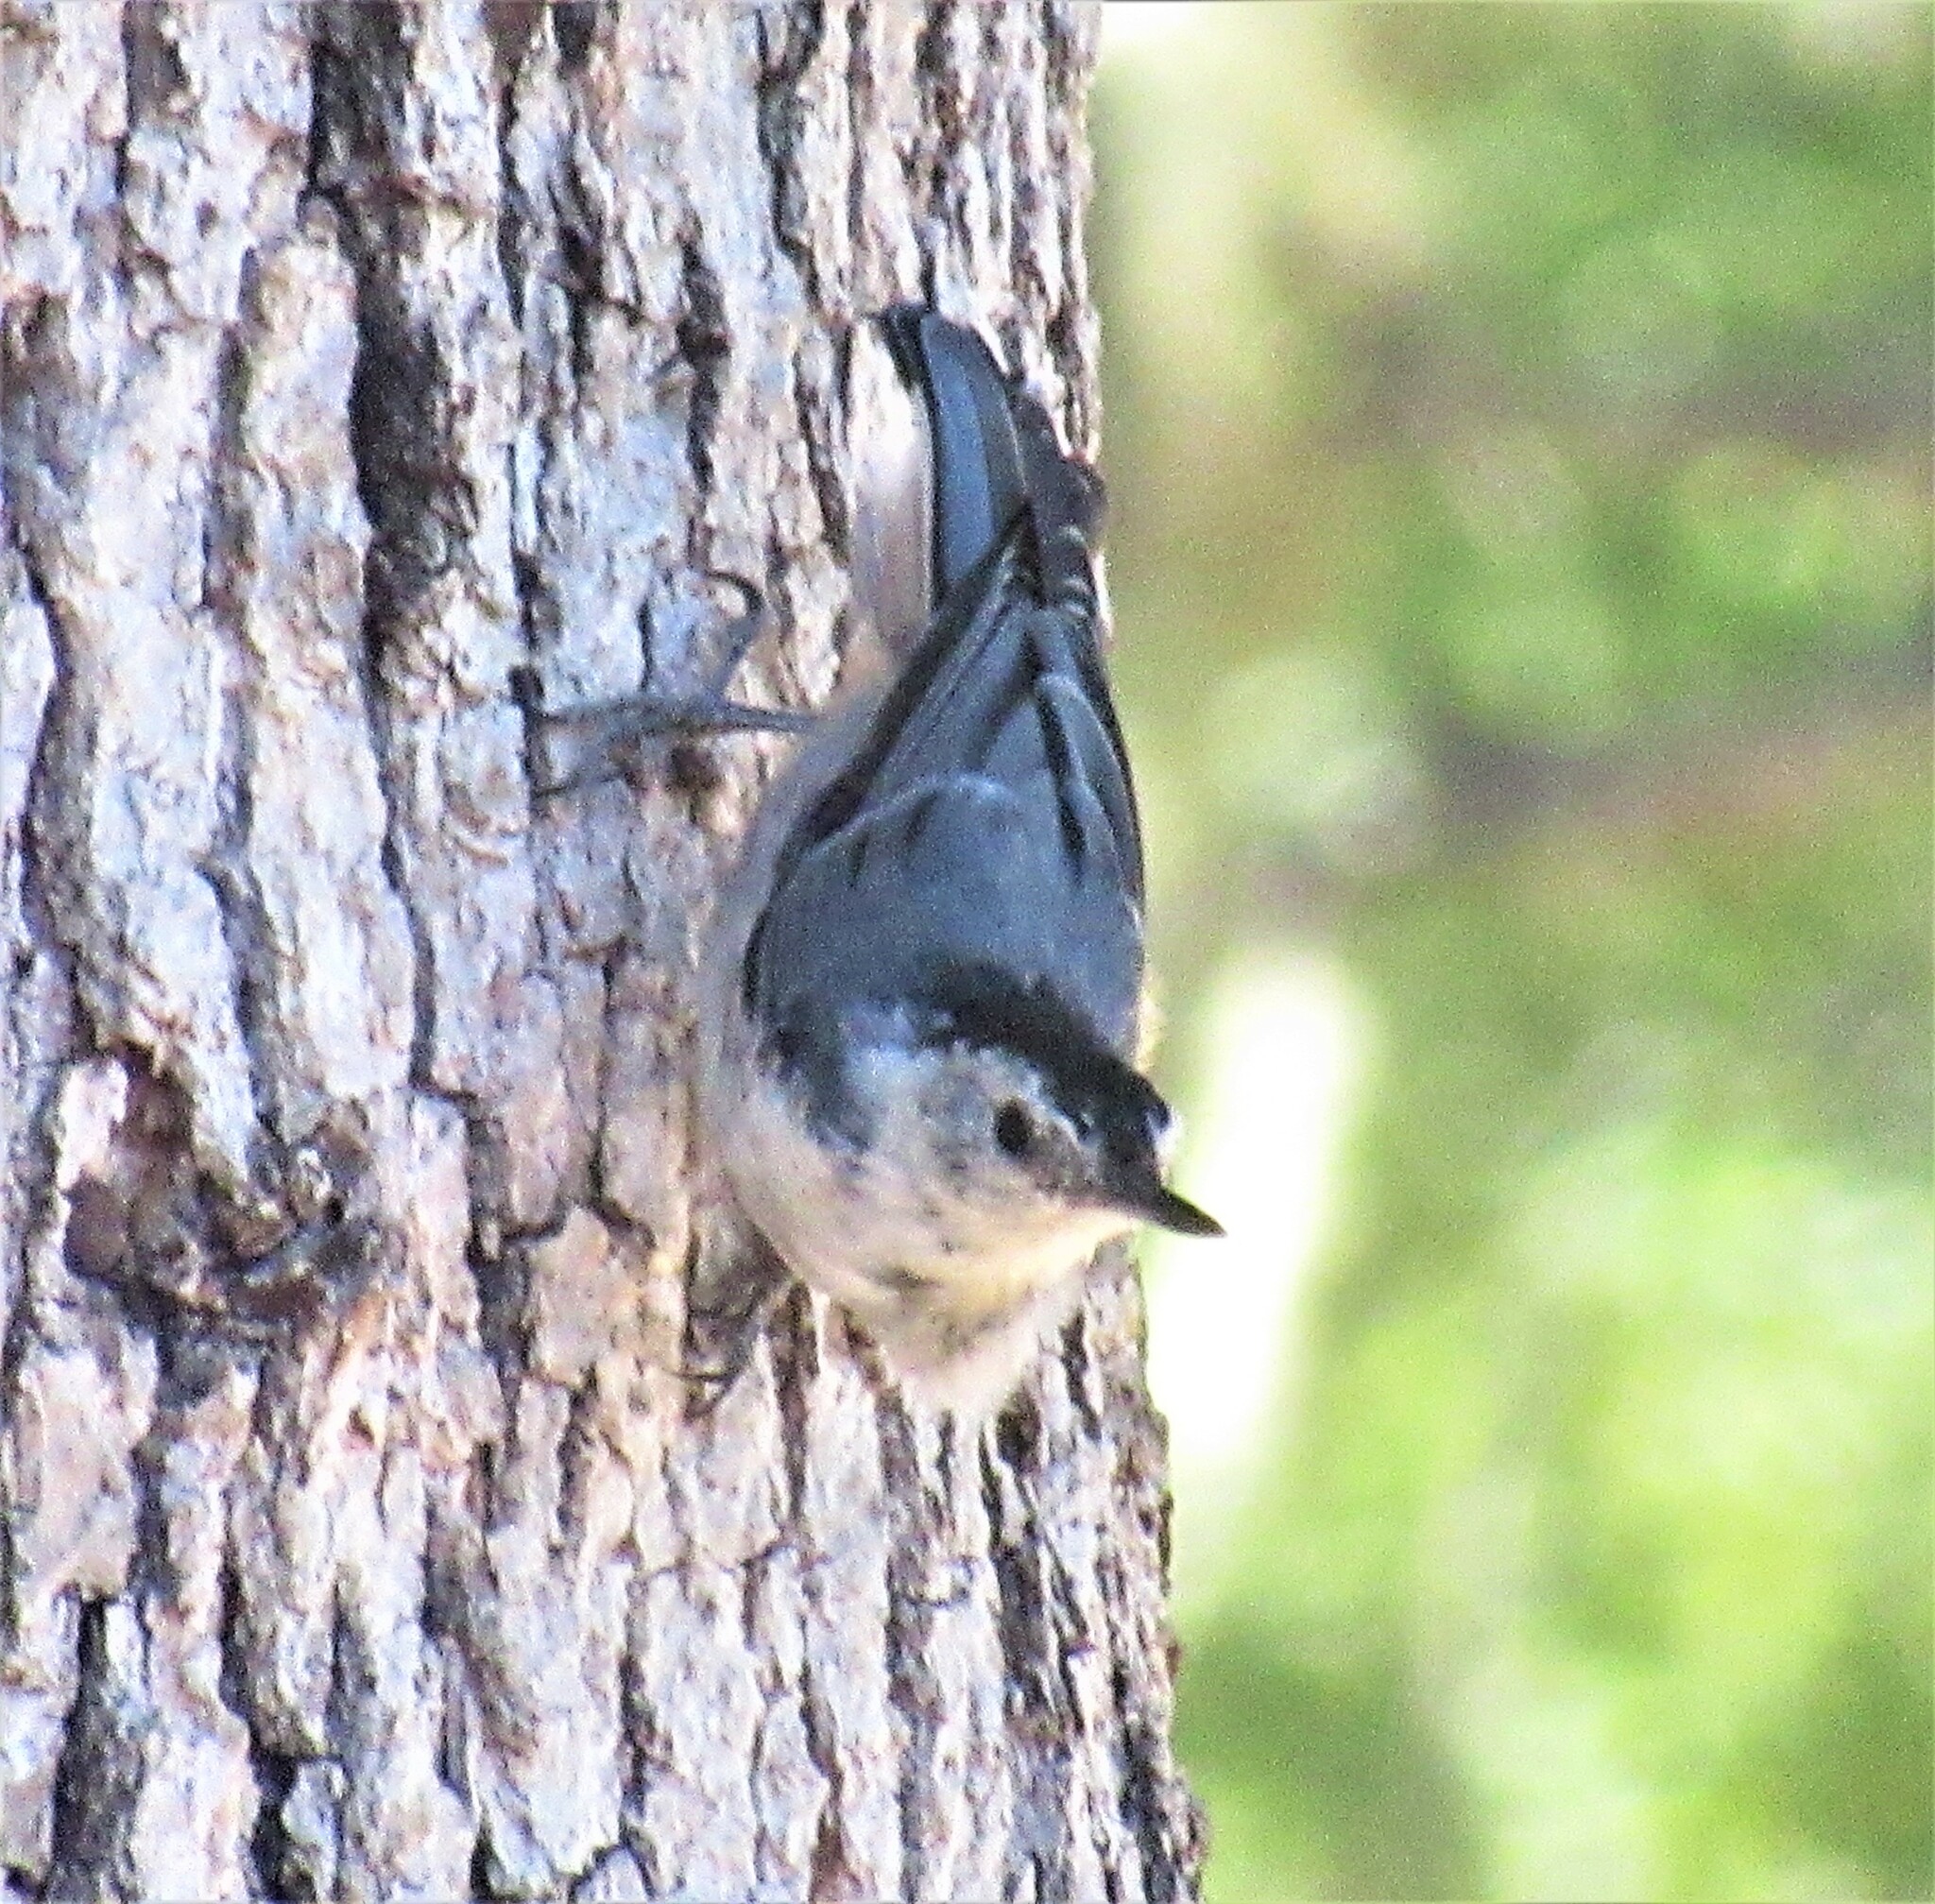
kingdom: Animalia
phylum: Chordata
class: Aves
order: Passeriformes
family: Sittidae
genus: Sitta
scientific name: Sitta carolinensis
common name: White-breasted nuthatch
